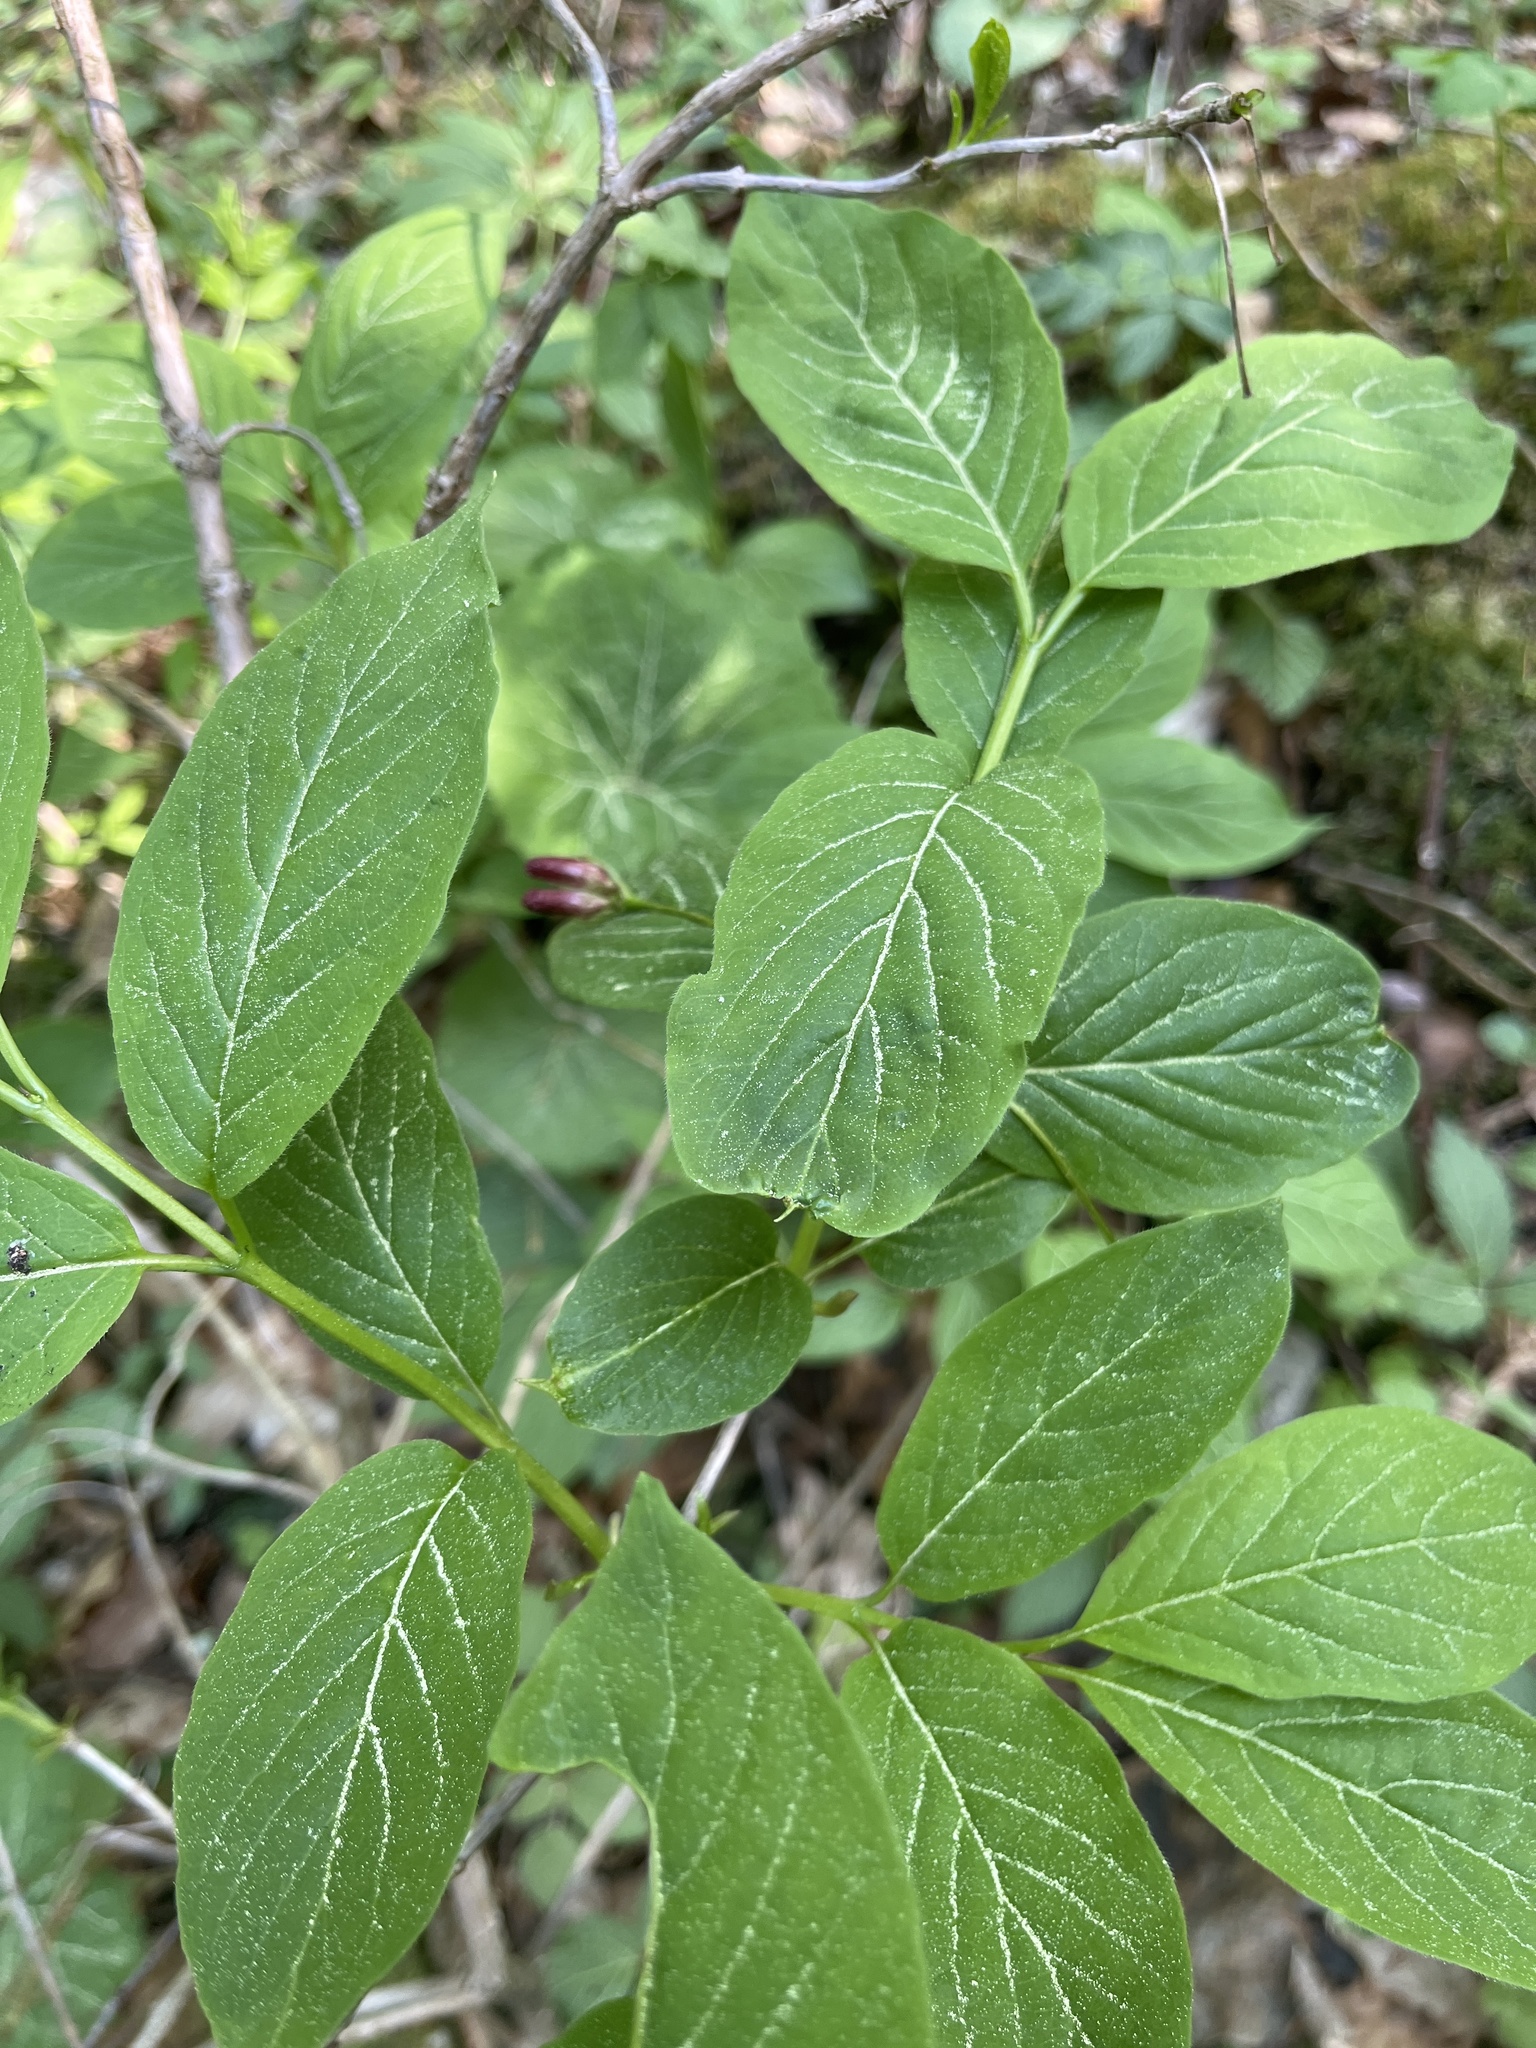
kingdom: Plantae
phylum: Tracheophyta
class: Magnoliopsida
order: Dipsacales
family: Caprifoliaceae
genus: Lonicera
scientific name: Lonicera alpigena
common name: Alpine honeysuckle
